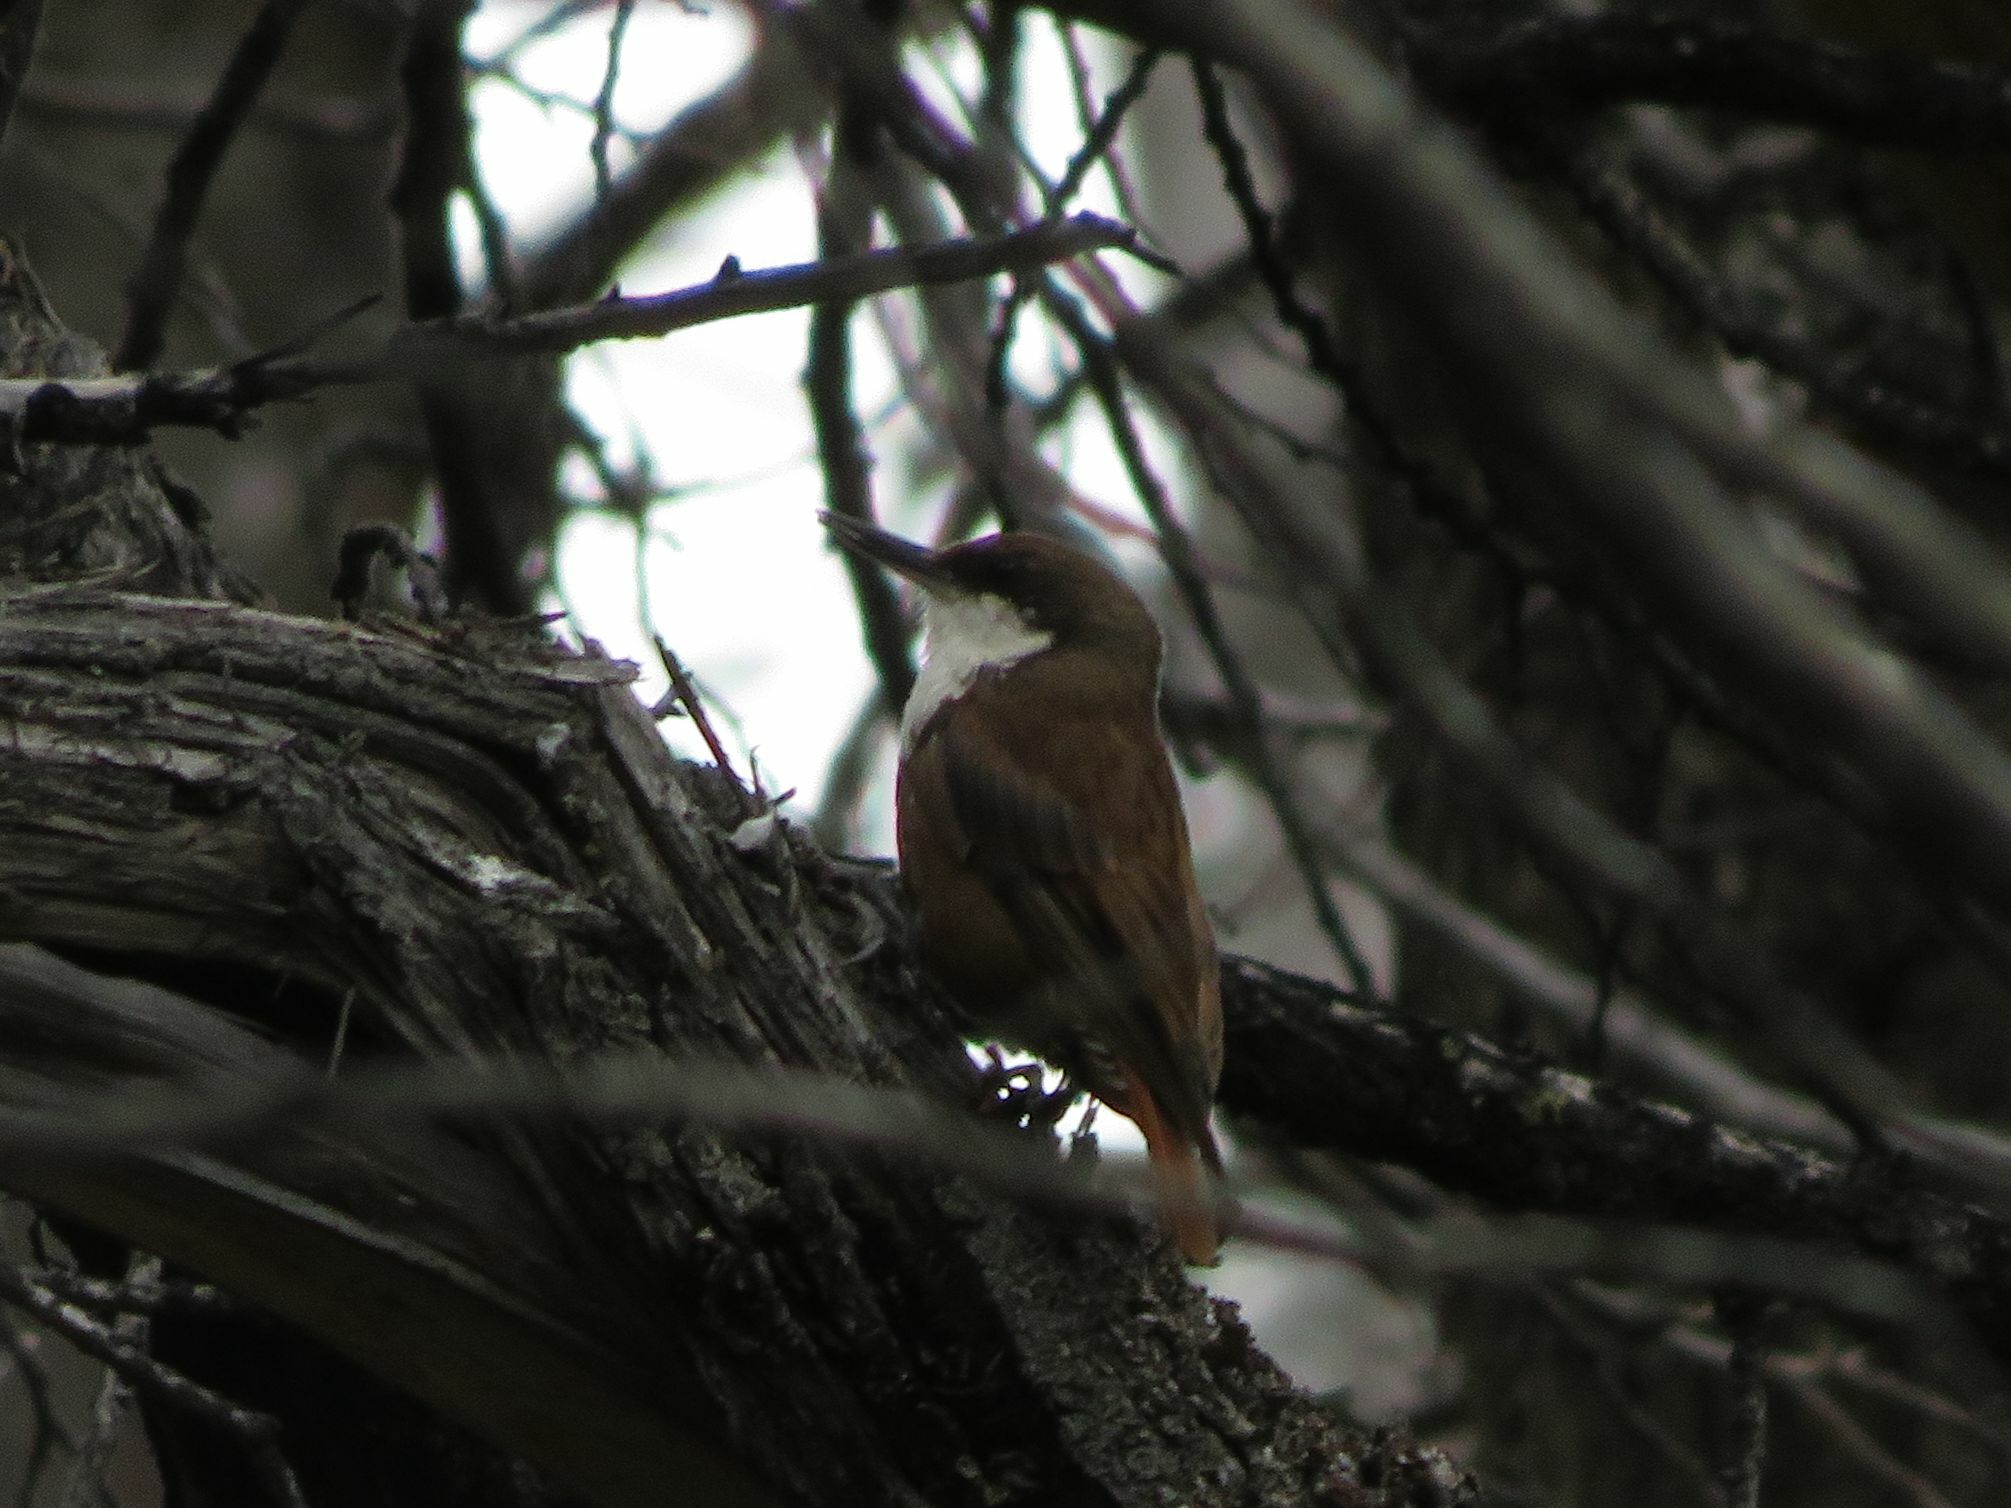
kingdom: Animalia
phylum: Chordata
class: Aves
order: Passeriformes
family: Furnariidae
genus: Pygarrhichas
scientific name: Pygarrhichas albogularis
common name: White-throated treerunner
